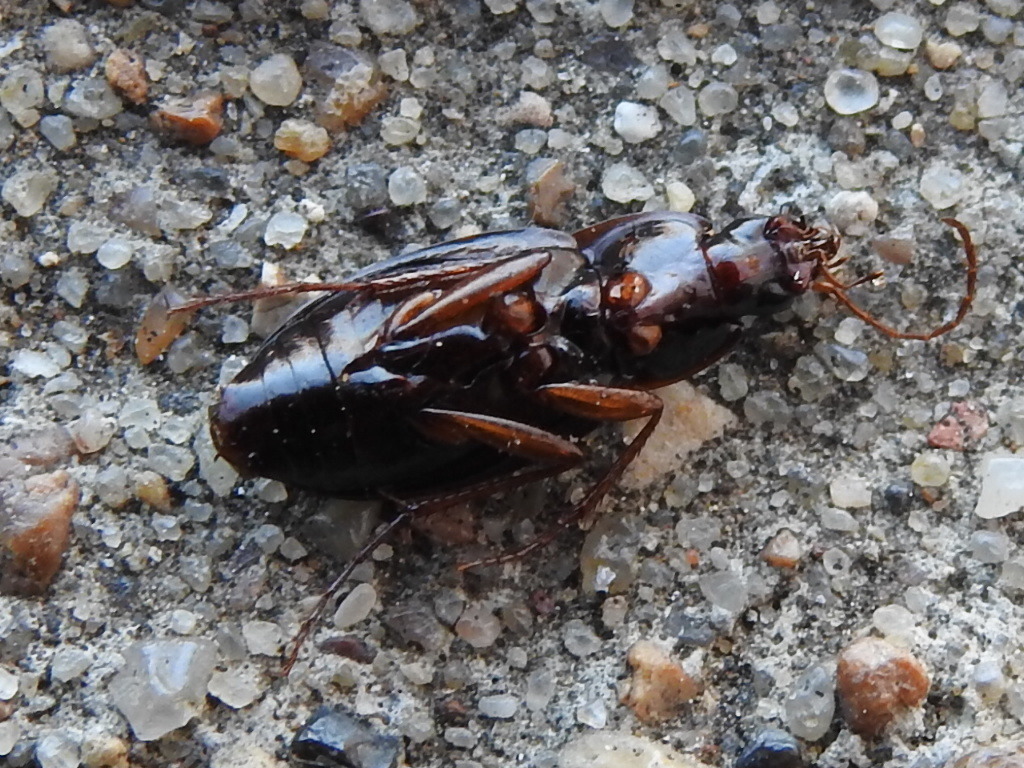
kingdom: Animalia
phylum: Arthropoda
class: Insecta
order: Coleoptera
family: Carabidae
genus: Calathus
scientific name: Calathus opaculus
